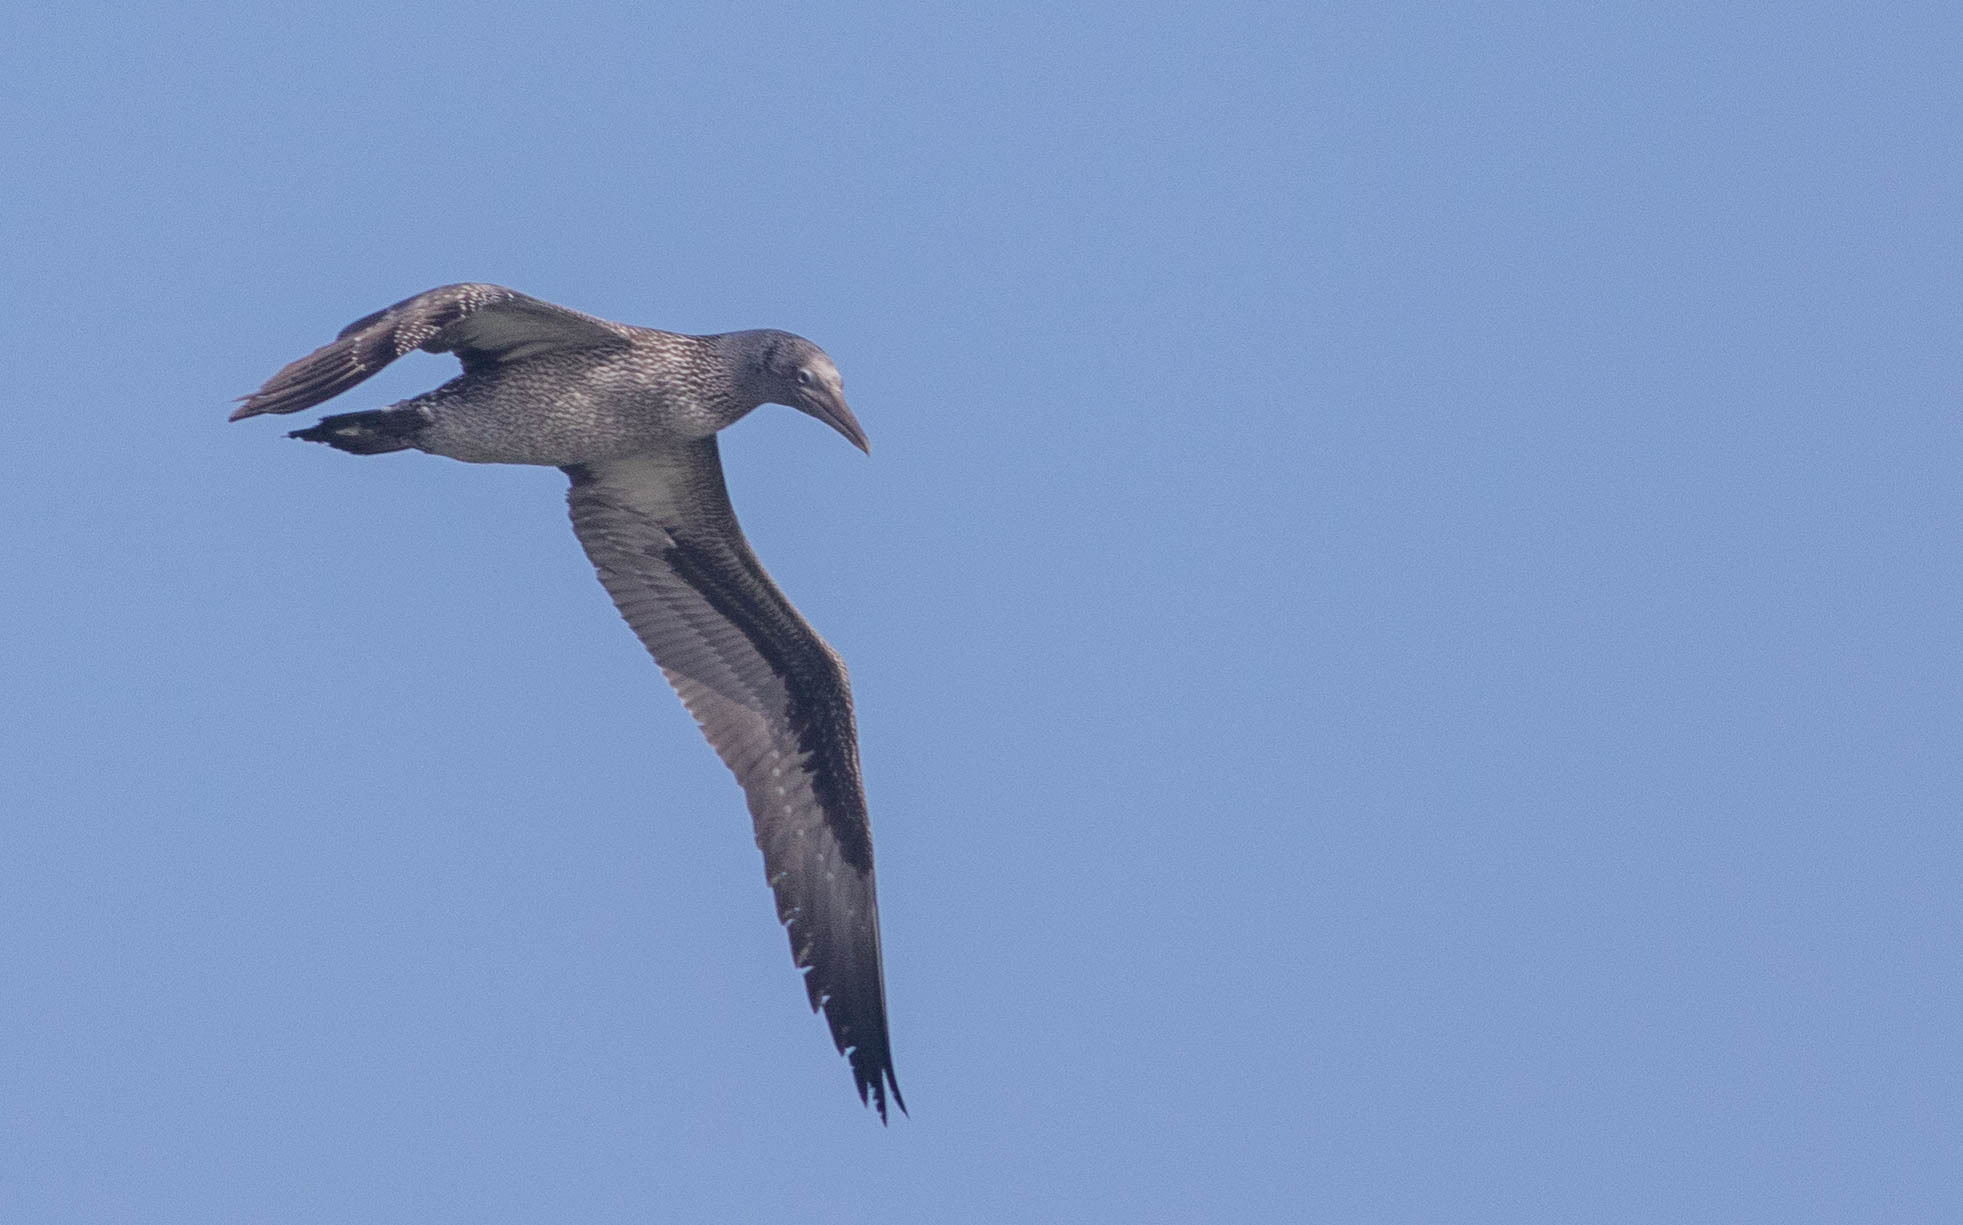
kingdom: Animalia
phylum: Chordata
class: Aves
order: Suliformes
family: Sulidae
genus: Morus
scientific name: Morus bassanus
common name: Northern gannet
